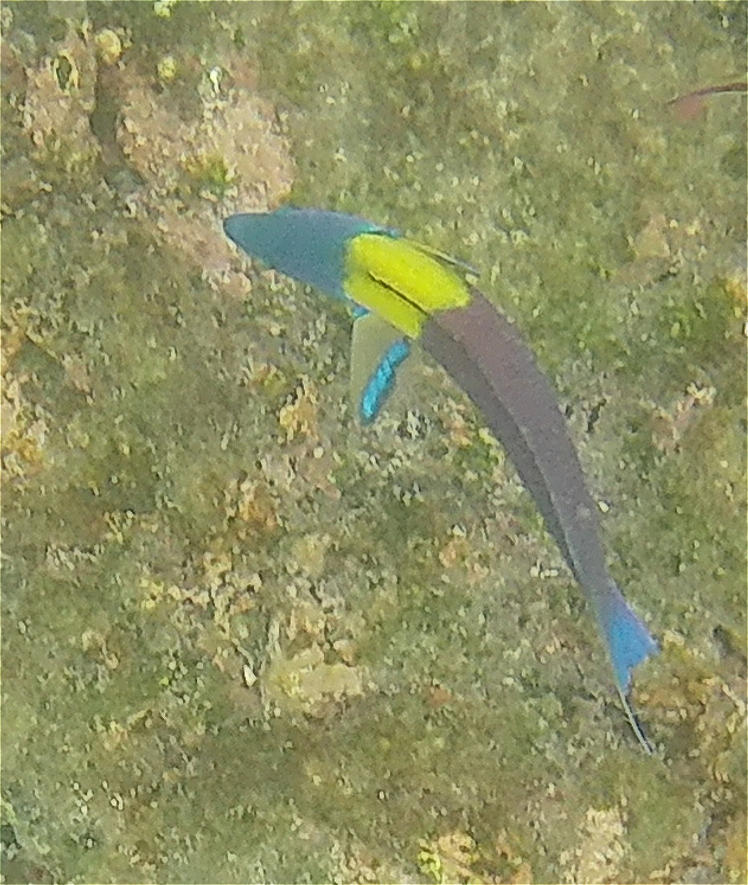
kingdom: Animalia
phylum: Chordata
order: Perciformes
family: Labridae
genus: Thalassoma
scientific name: Thalassoma lucasanum
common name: Cortez rainbow wrasse
